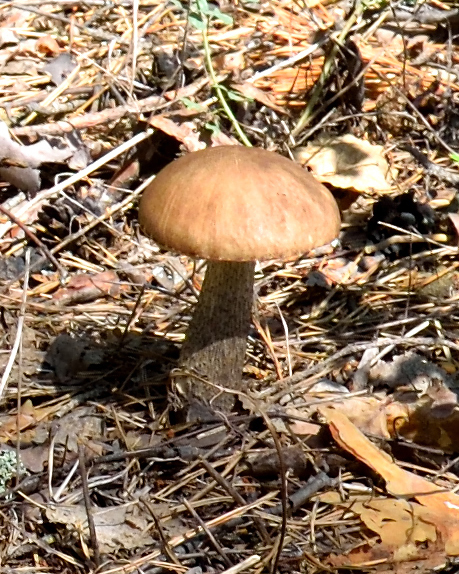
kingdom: Fungi
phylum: Basidiomycota
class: Agaricomycetes
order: Boletales
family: Boletaceae
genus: Leccinum
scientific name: Leccinum scabrum
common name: Blushing bolete
